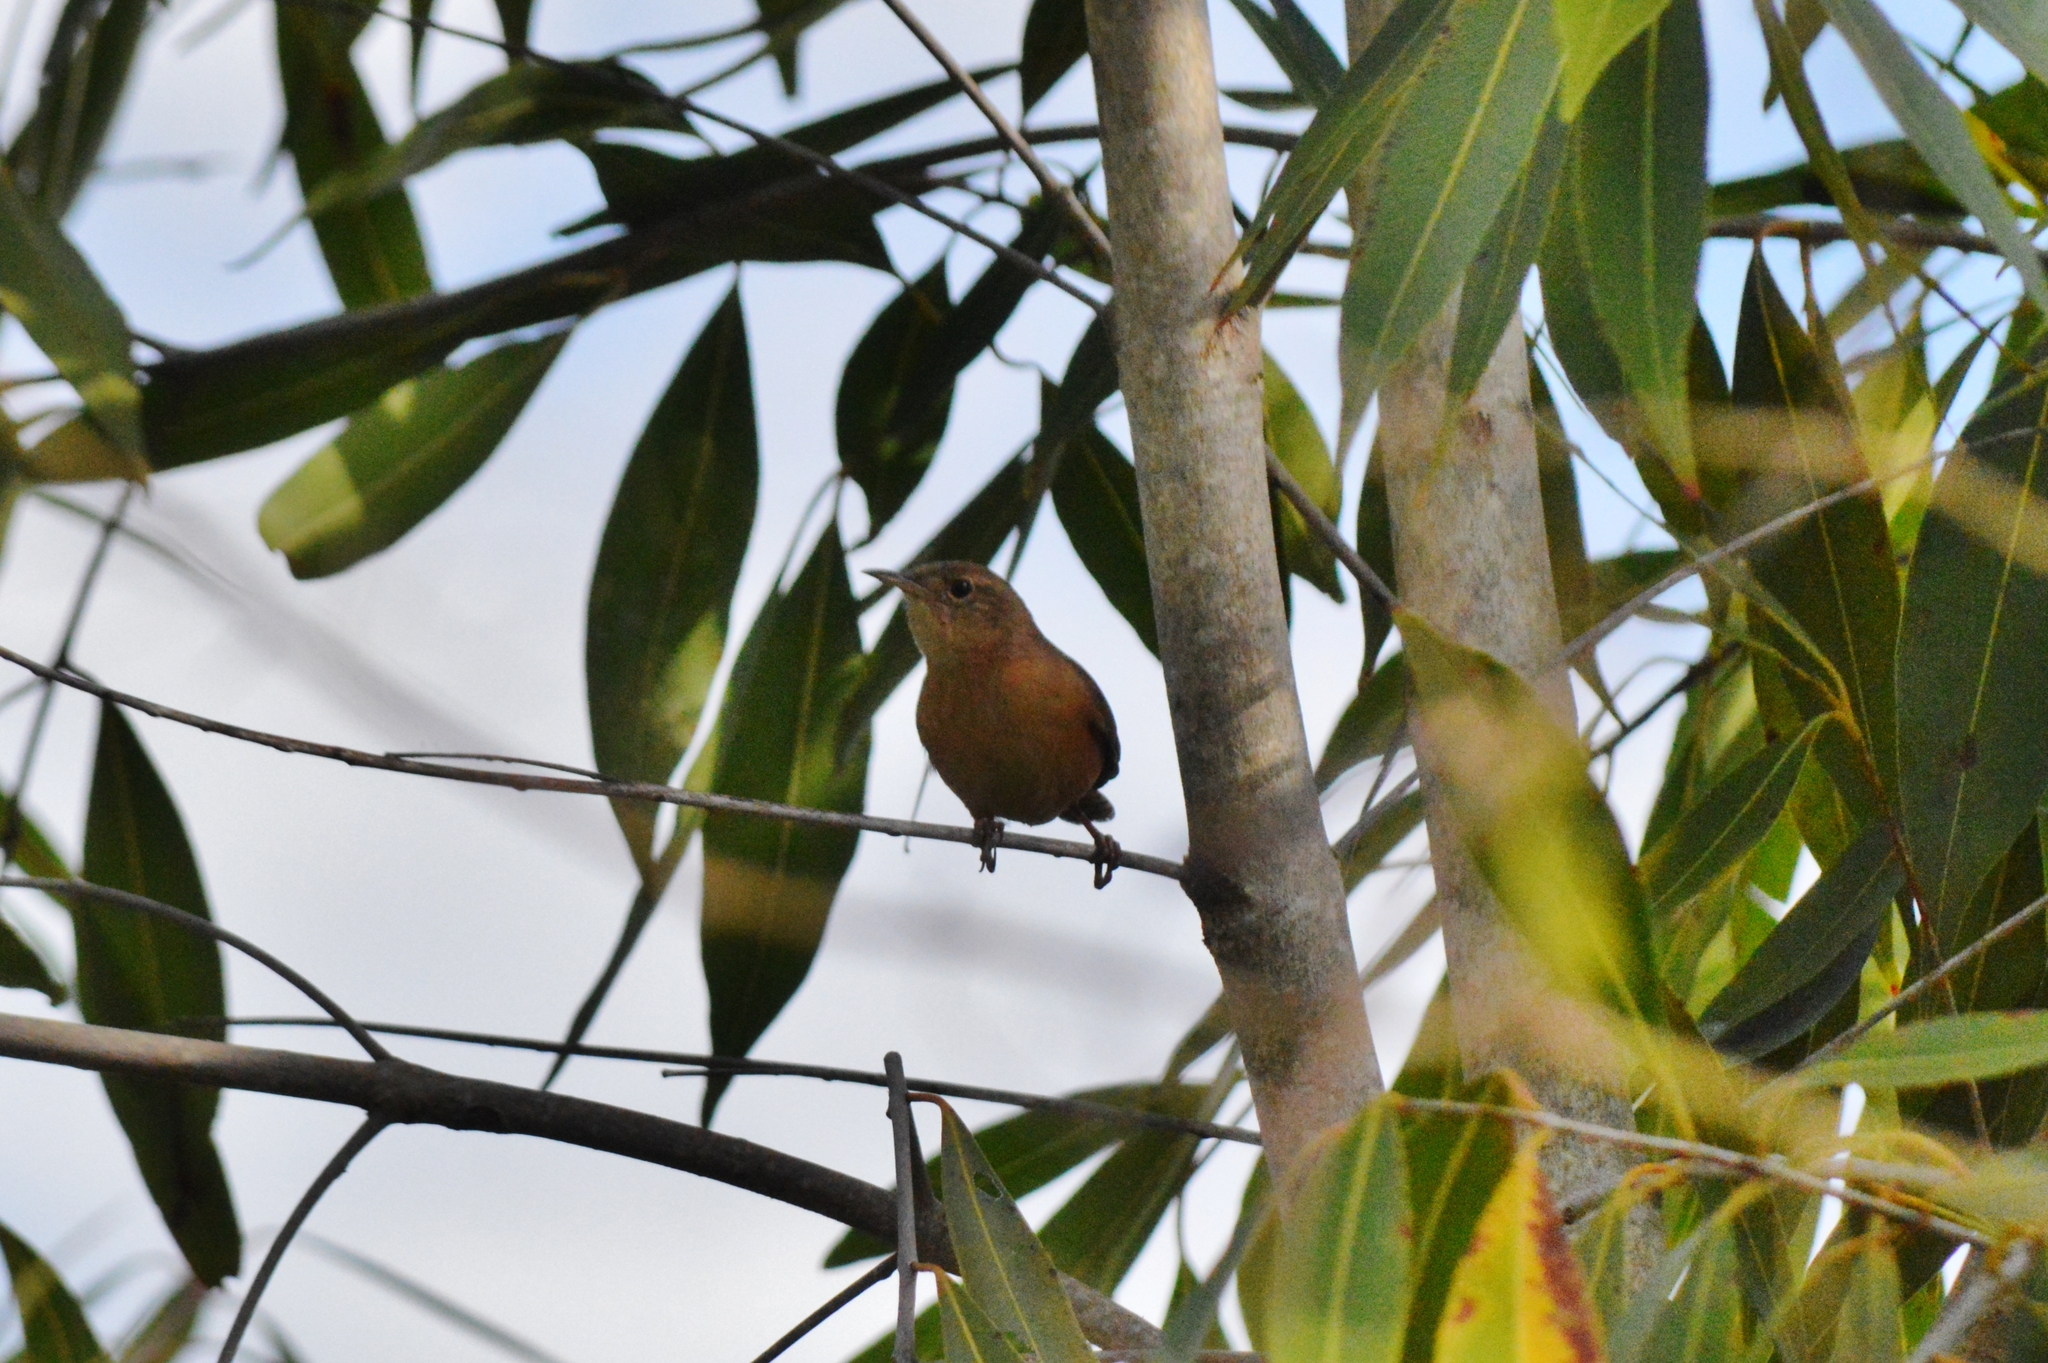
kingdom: Animalia
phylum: Chordata
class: Aves
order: Passeriformes
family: Troglodytidae
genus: Troglodytes
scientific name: Troglodytes aedon
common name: House wren
